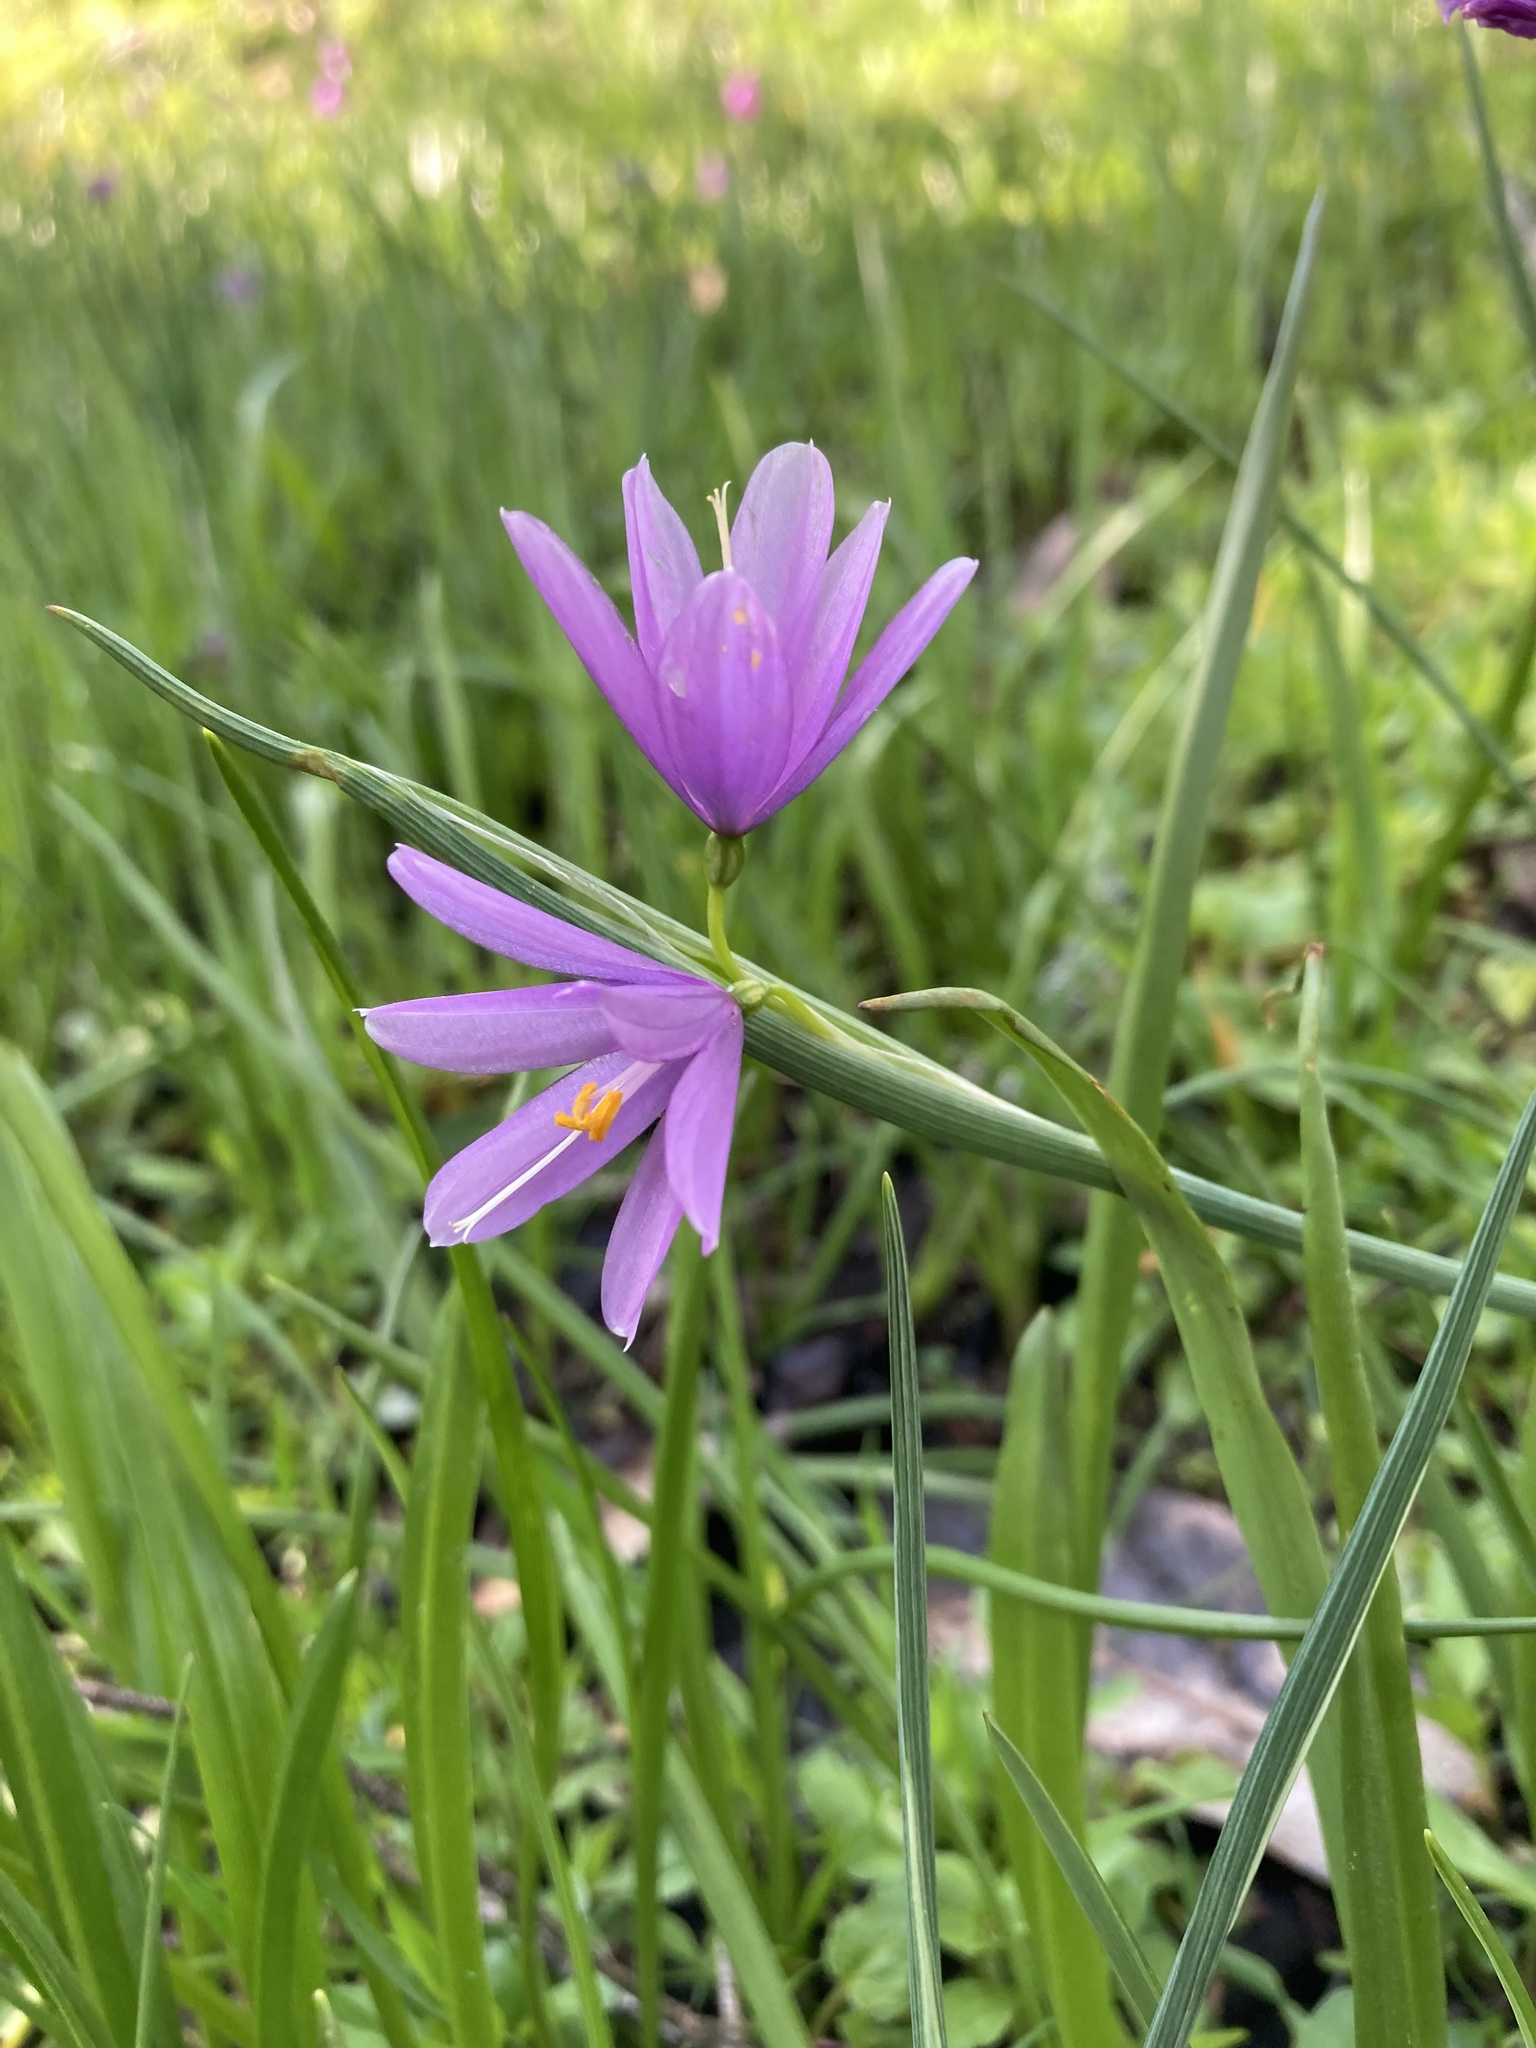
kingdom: Plantae
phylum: Tracheophyta
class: Liliopsida
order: Asparagales
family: Iridaceae
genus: Olsynium
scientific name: Olsynium douglasii
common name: Douglas' grasswidow
